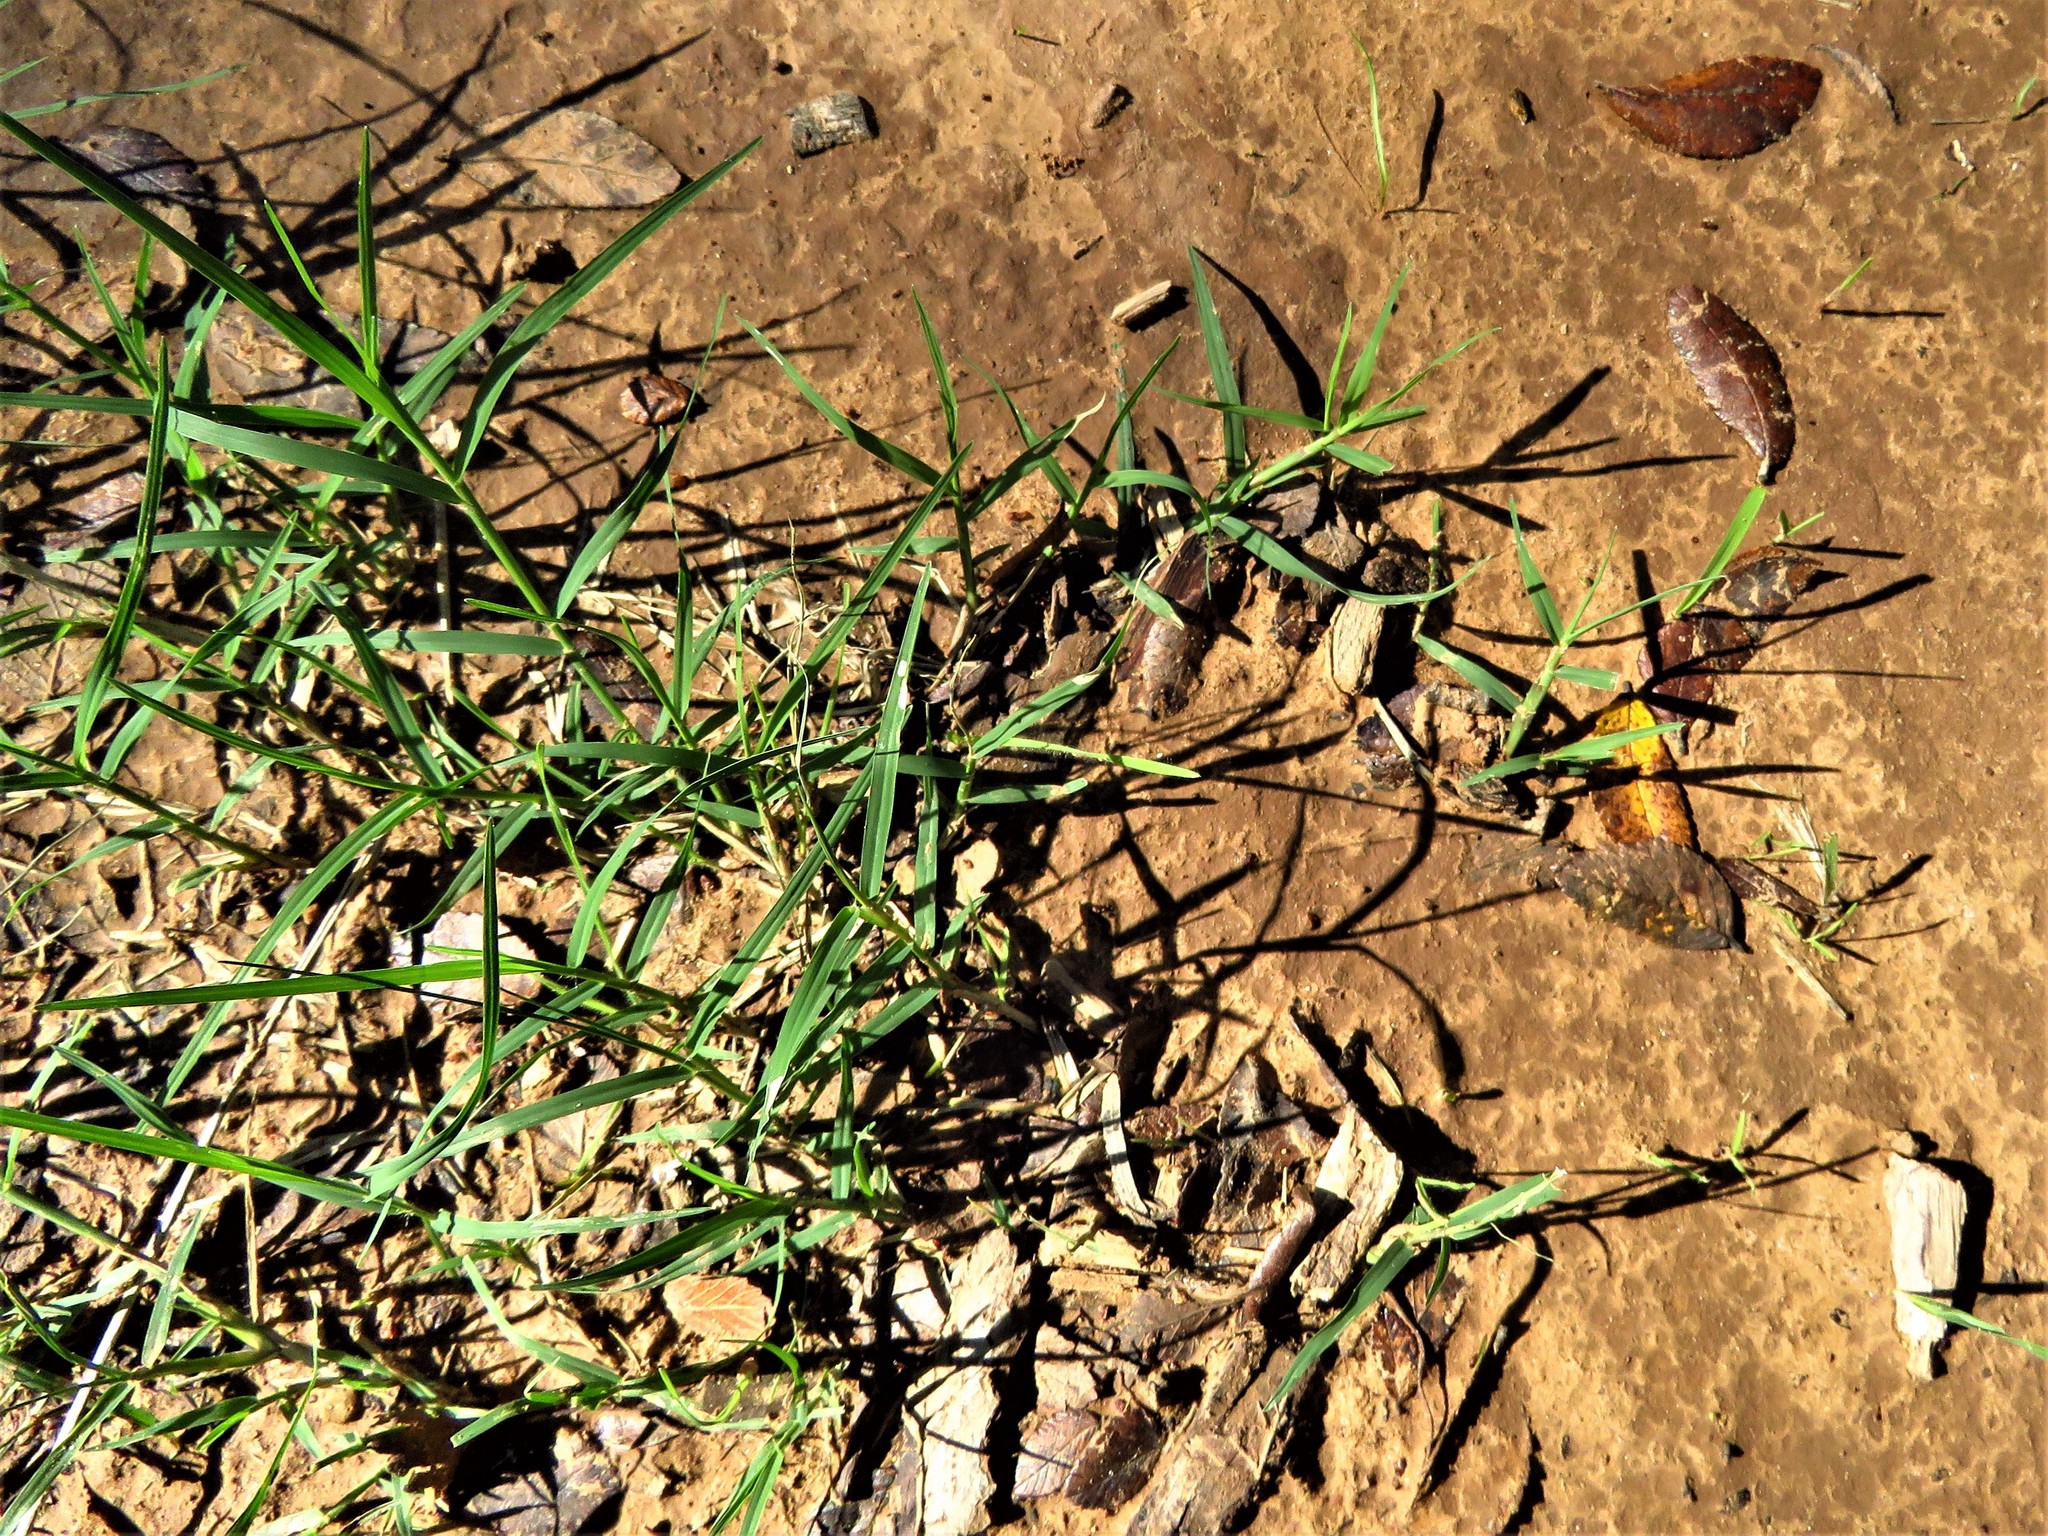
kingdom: Plantae
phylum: Tracheophyta
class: Liliopsida
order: Poales
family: Poaceae
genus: Cynodon
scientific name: Cynodon dactylon
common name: Bermuda grass
